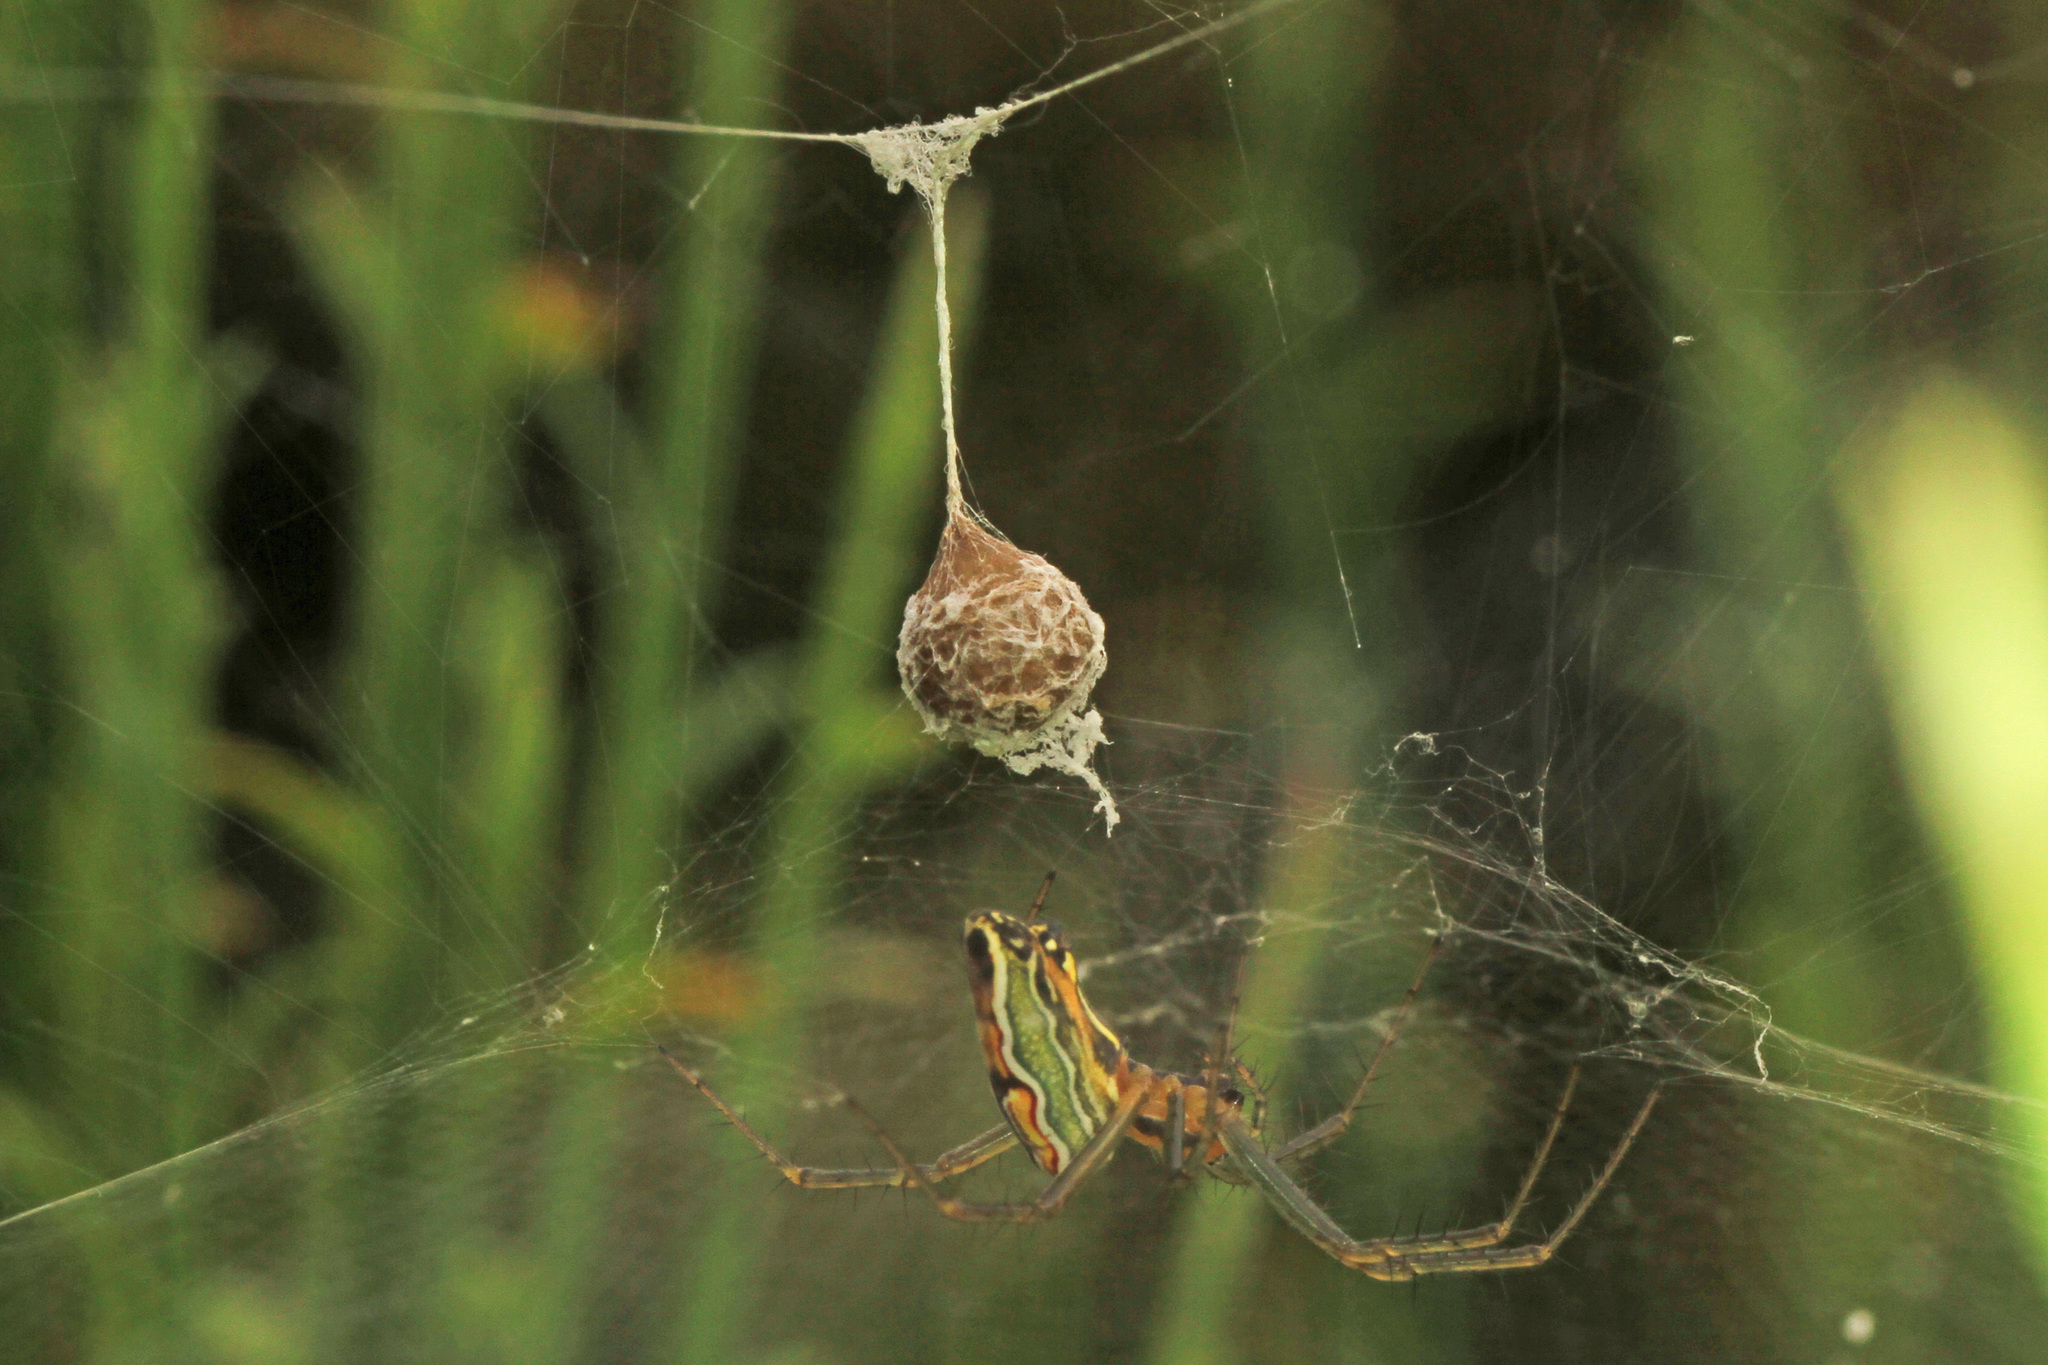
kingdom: Animalia
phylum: Arthropoda
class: Arachnida
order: Araneae
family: Araneidae
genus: Mecynogea
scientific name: Mecynogea lemniscata
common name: Orb weavers
